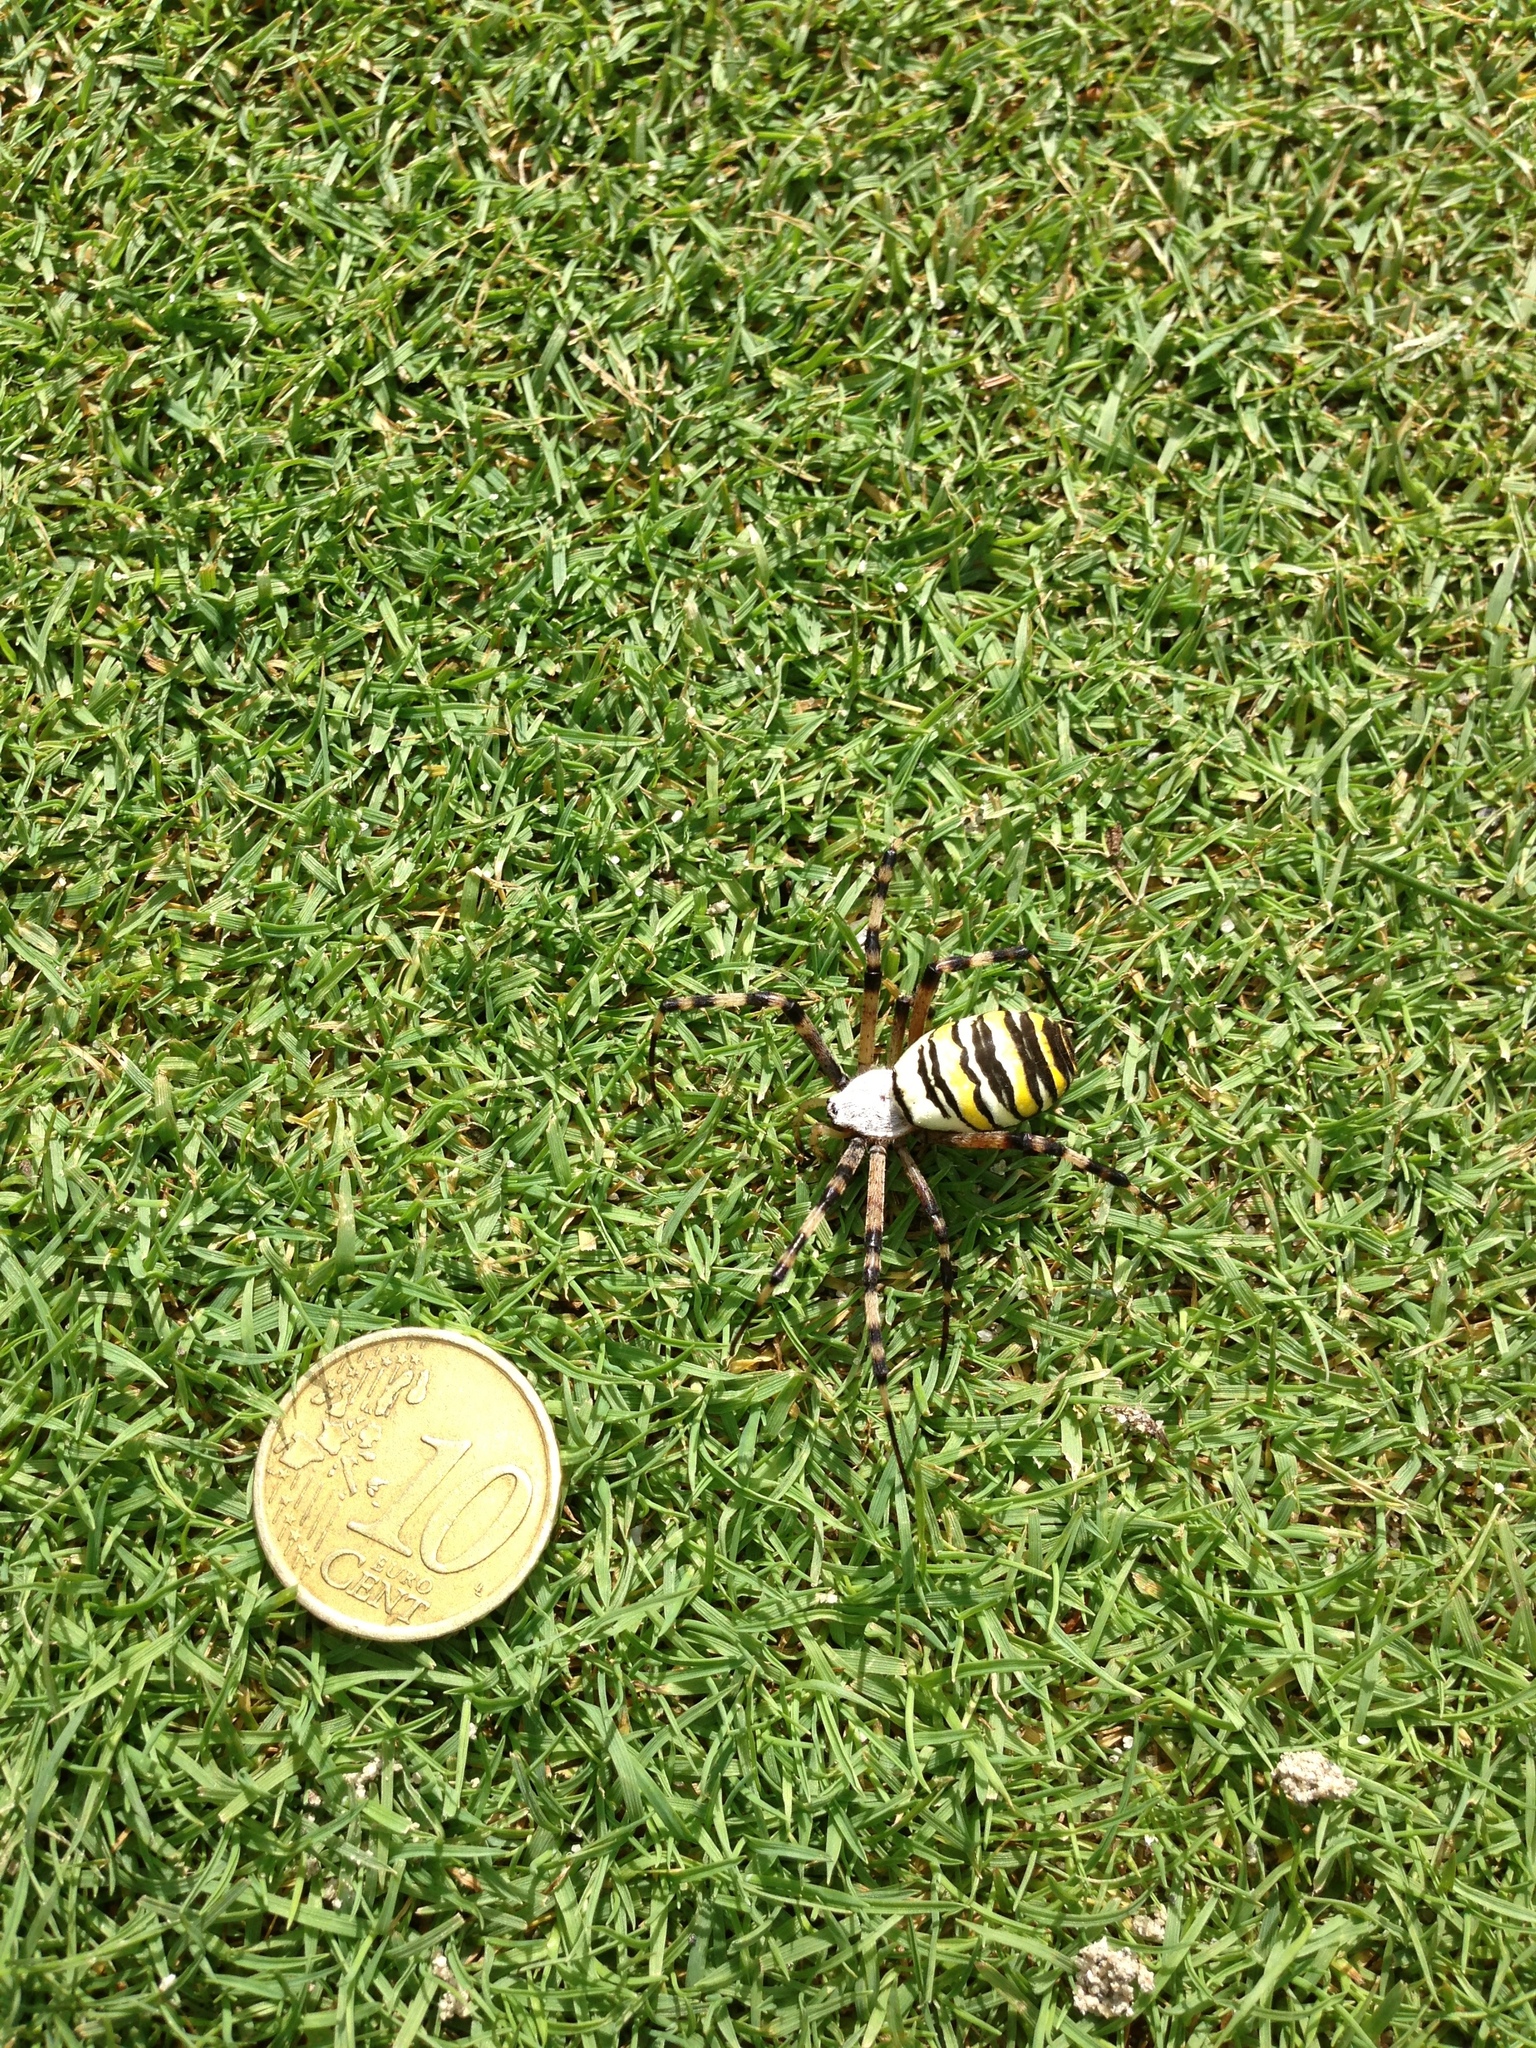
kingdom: Animalia
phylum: Arthropoda
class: Arachnida
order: Araneae
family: Araneidae
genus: Argiope
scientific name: Argiope bruennichi
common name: Wasp spider
